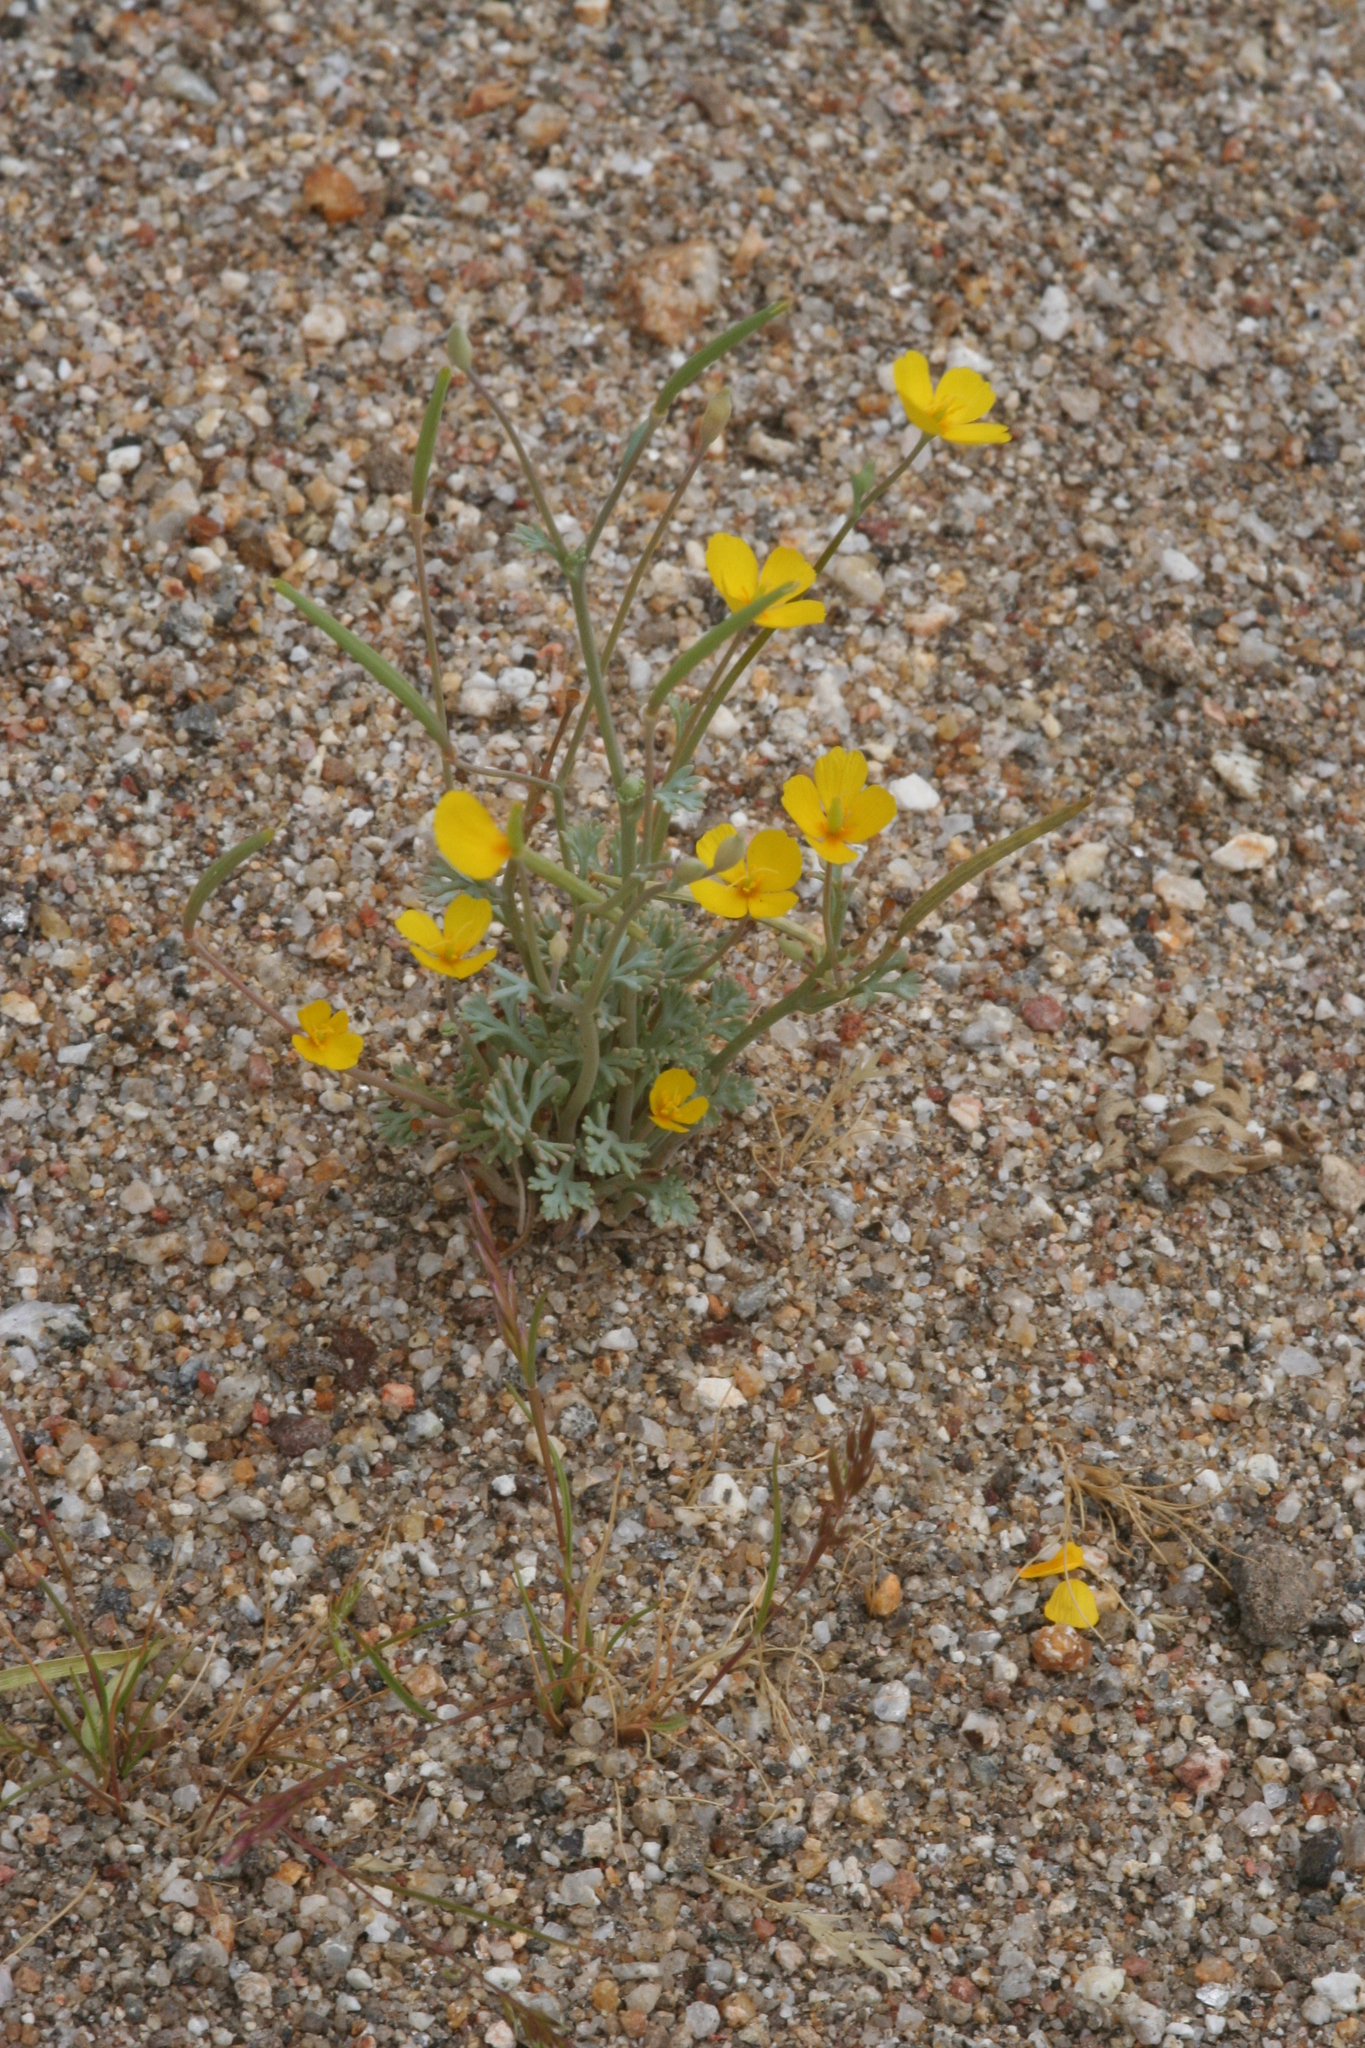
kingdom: Plantae
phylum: Tracheophyta
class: Magnoliopsida
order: Ranunculales
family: Papaveraceae
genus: Eschscholzia
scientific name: Eschscholzia minutiflora
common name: Small-flower california-poppy
